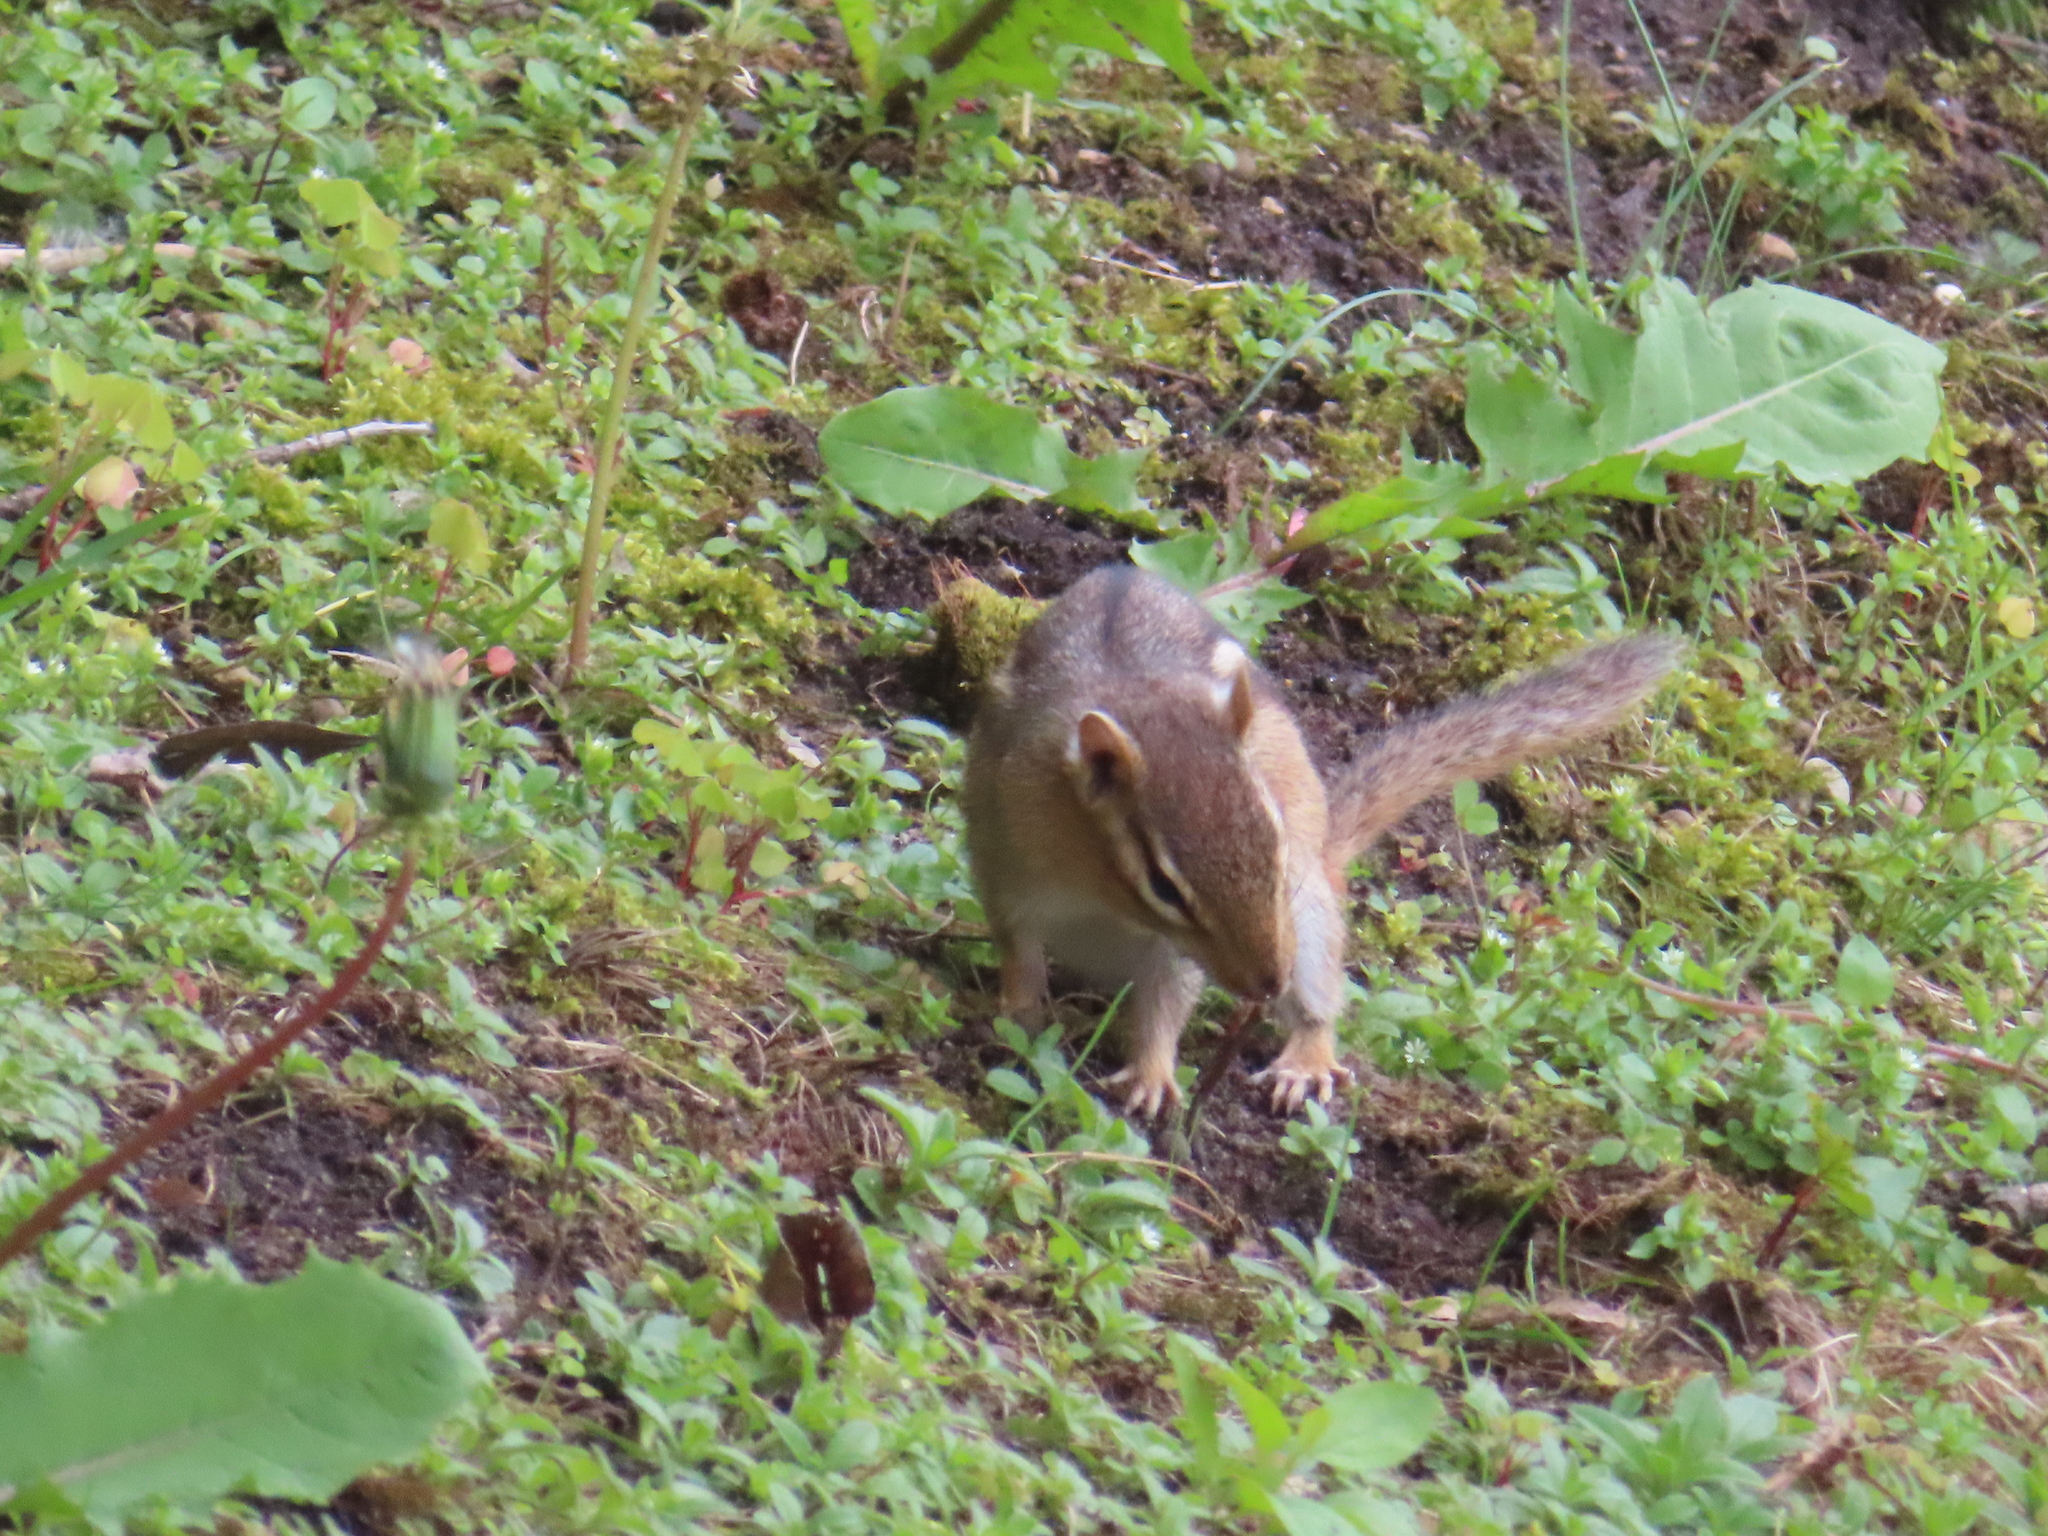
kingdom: Animalia
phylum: Chordata
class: Mammalia
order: Rodentia
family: Sciuridae
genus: Tamias
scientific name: Tamias striatus
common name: Eastern chipmunk
